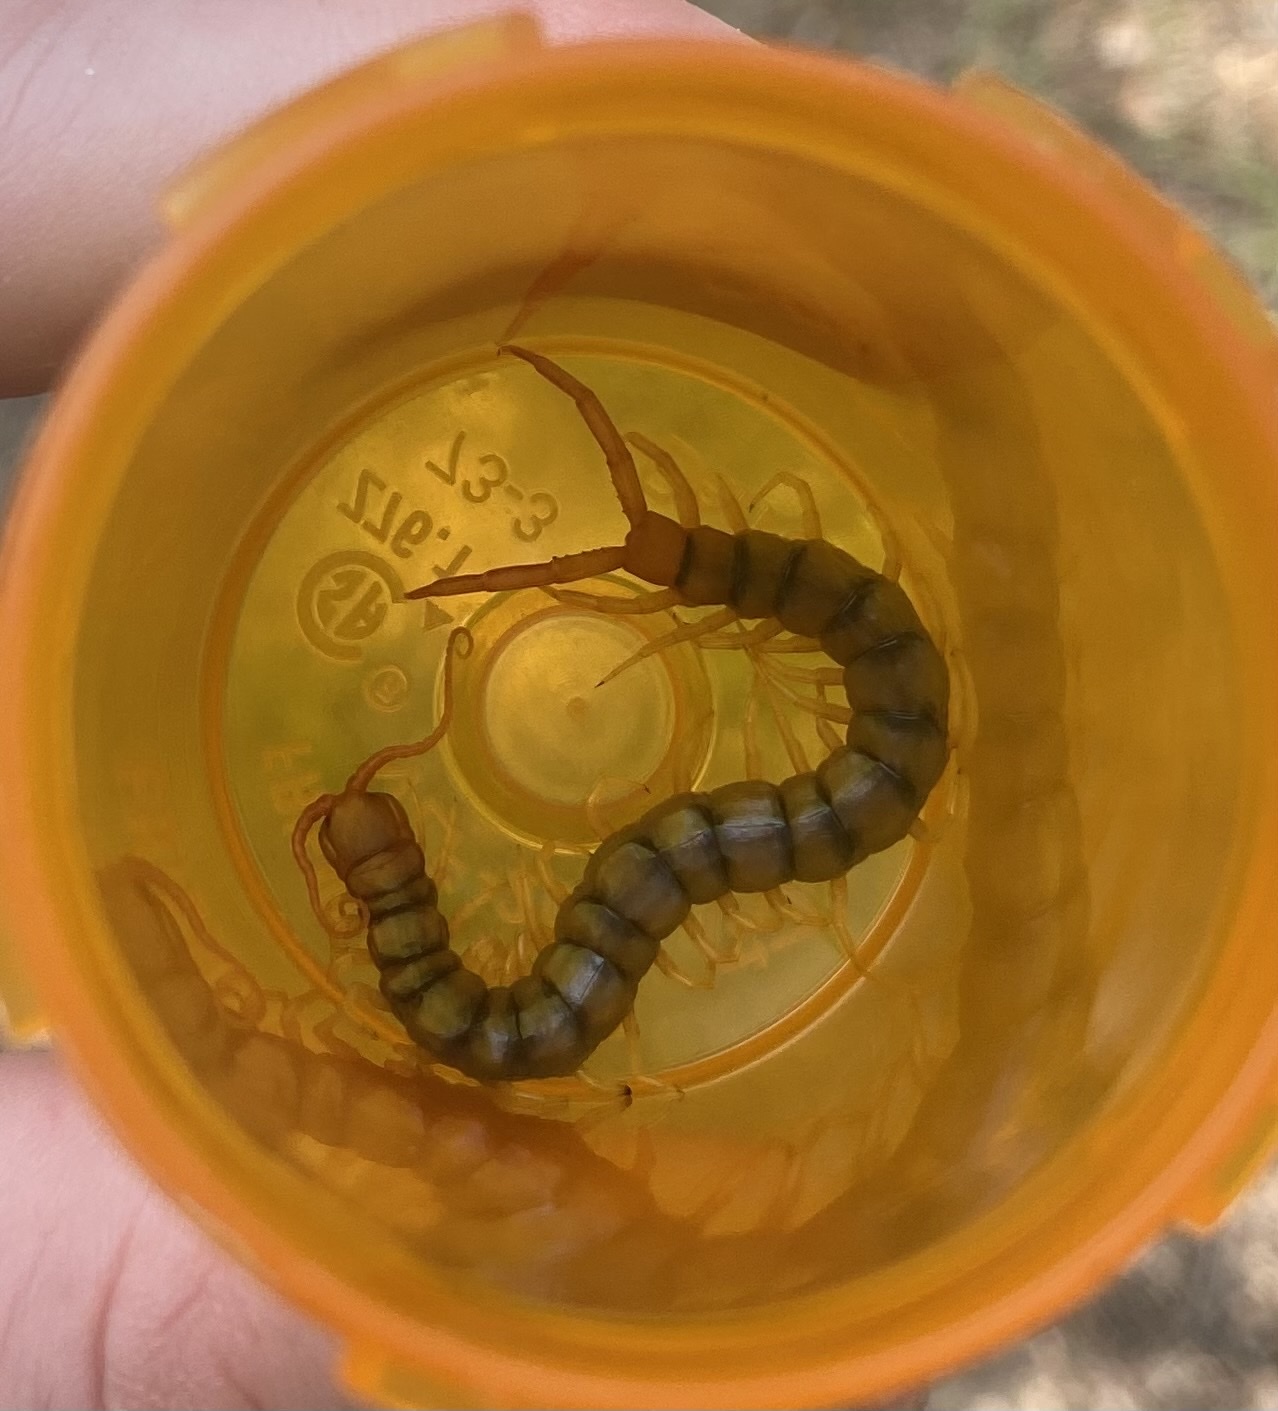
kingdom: Animalia
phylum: Arthropoda
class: Chilopoda
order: Scolopendromorpha
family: Scolopendridae
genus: Scolopendra
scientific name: Scolopendra polymorpha
